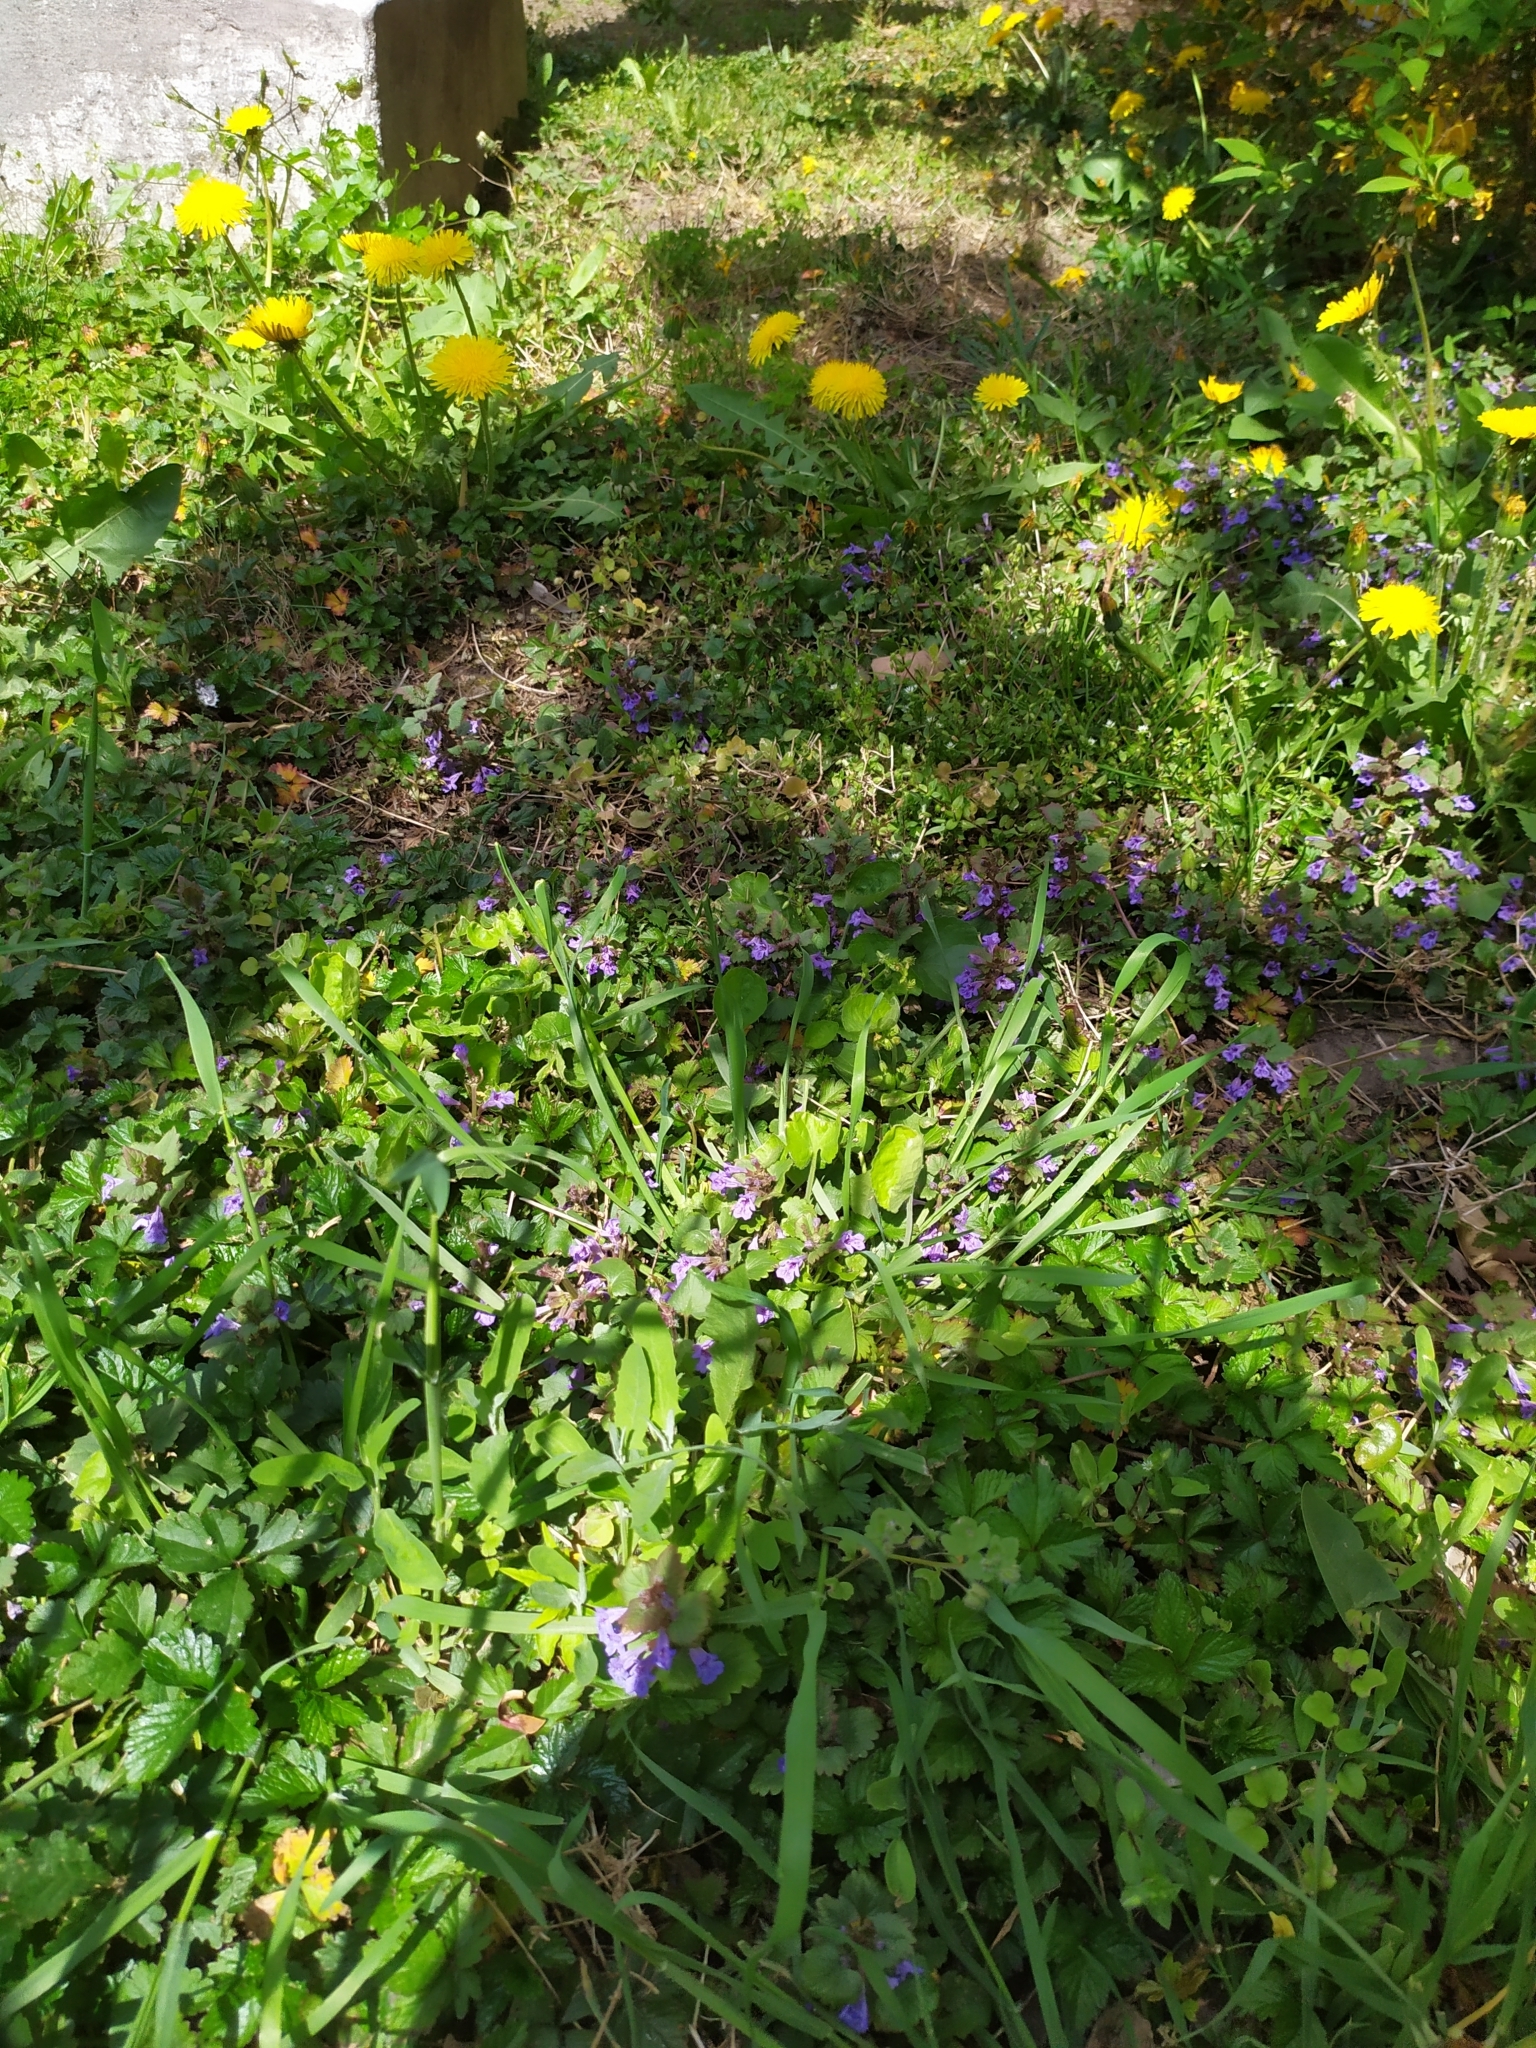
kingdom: Plantae
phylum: Tracheophyta
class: Magnoliopsida
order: Lamiales
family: Lamiaceae
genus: Glechoma
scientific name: Glechoma hederacea
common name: Ground ivy
